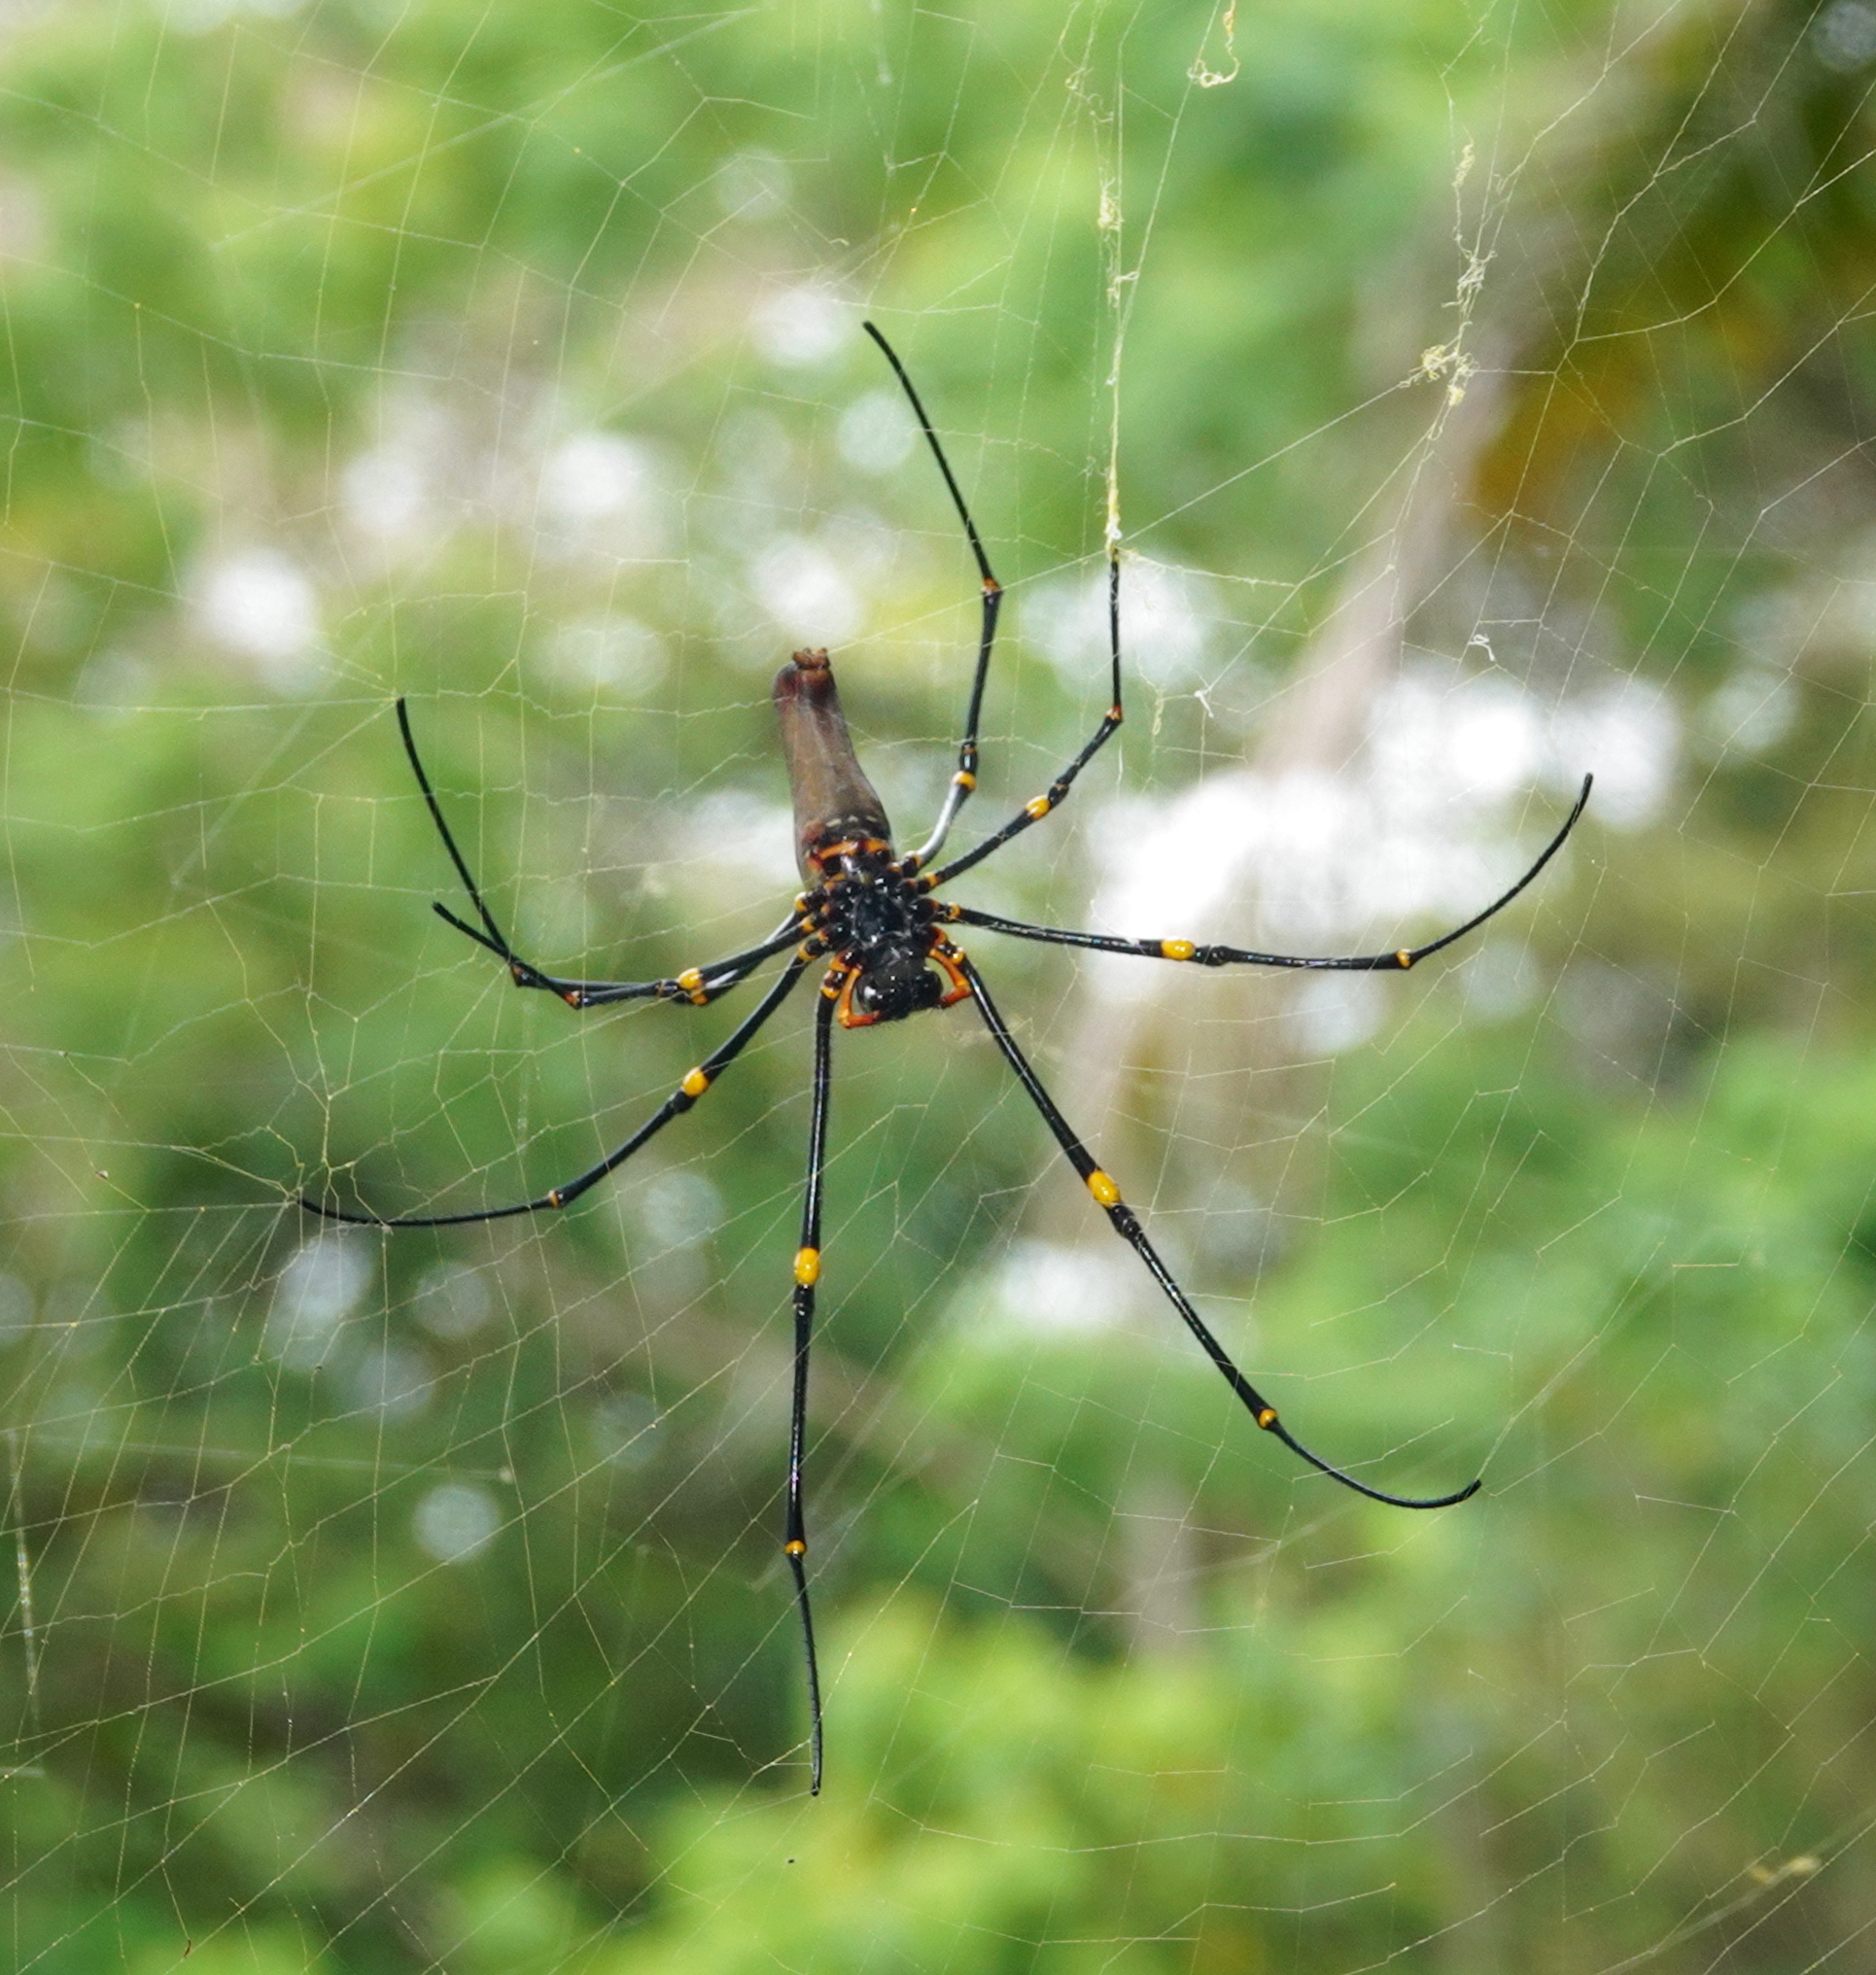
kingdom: Animalia
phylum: Arthropoda
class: Arachnida
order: Araneae
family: Araneidae
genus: Nephila
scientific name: Nephila pilipes
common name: Giant golden orb weaver
